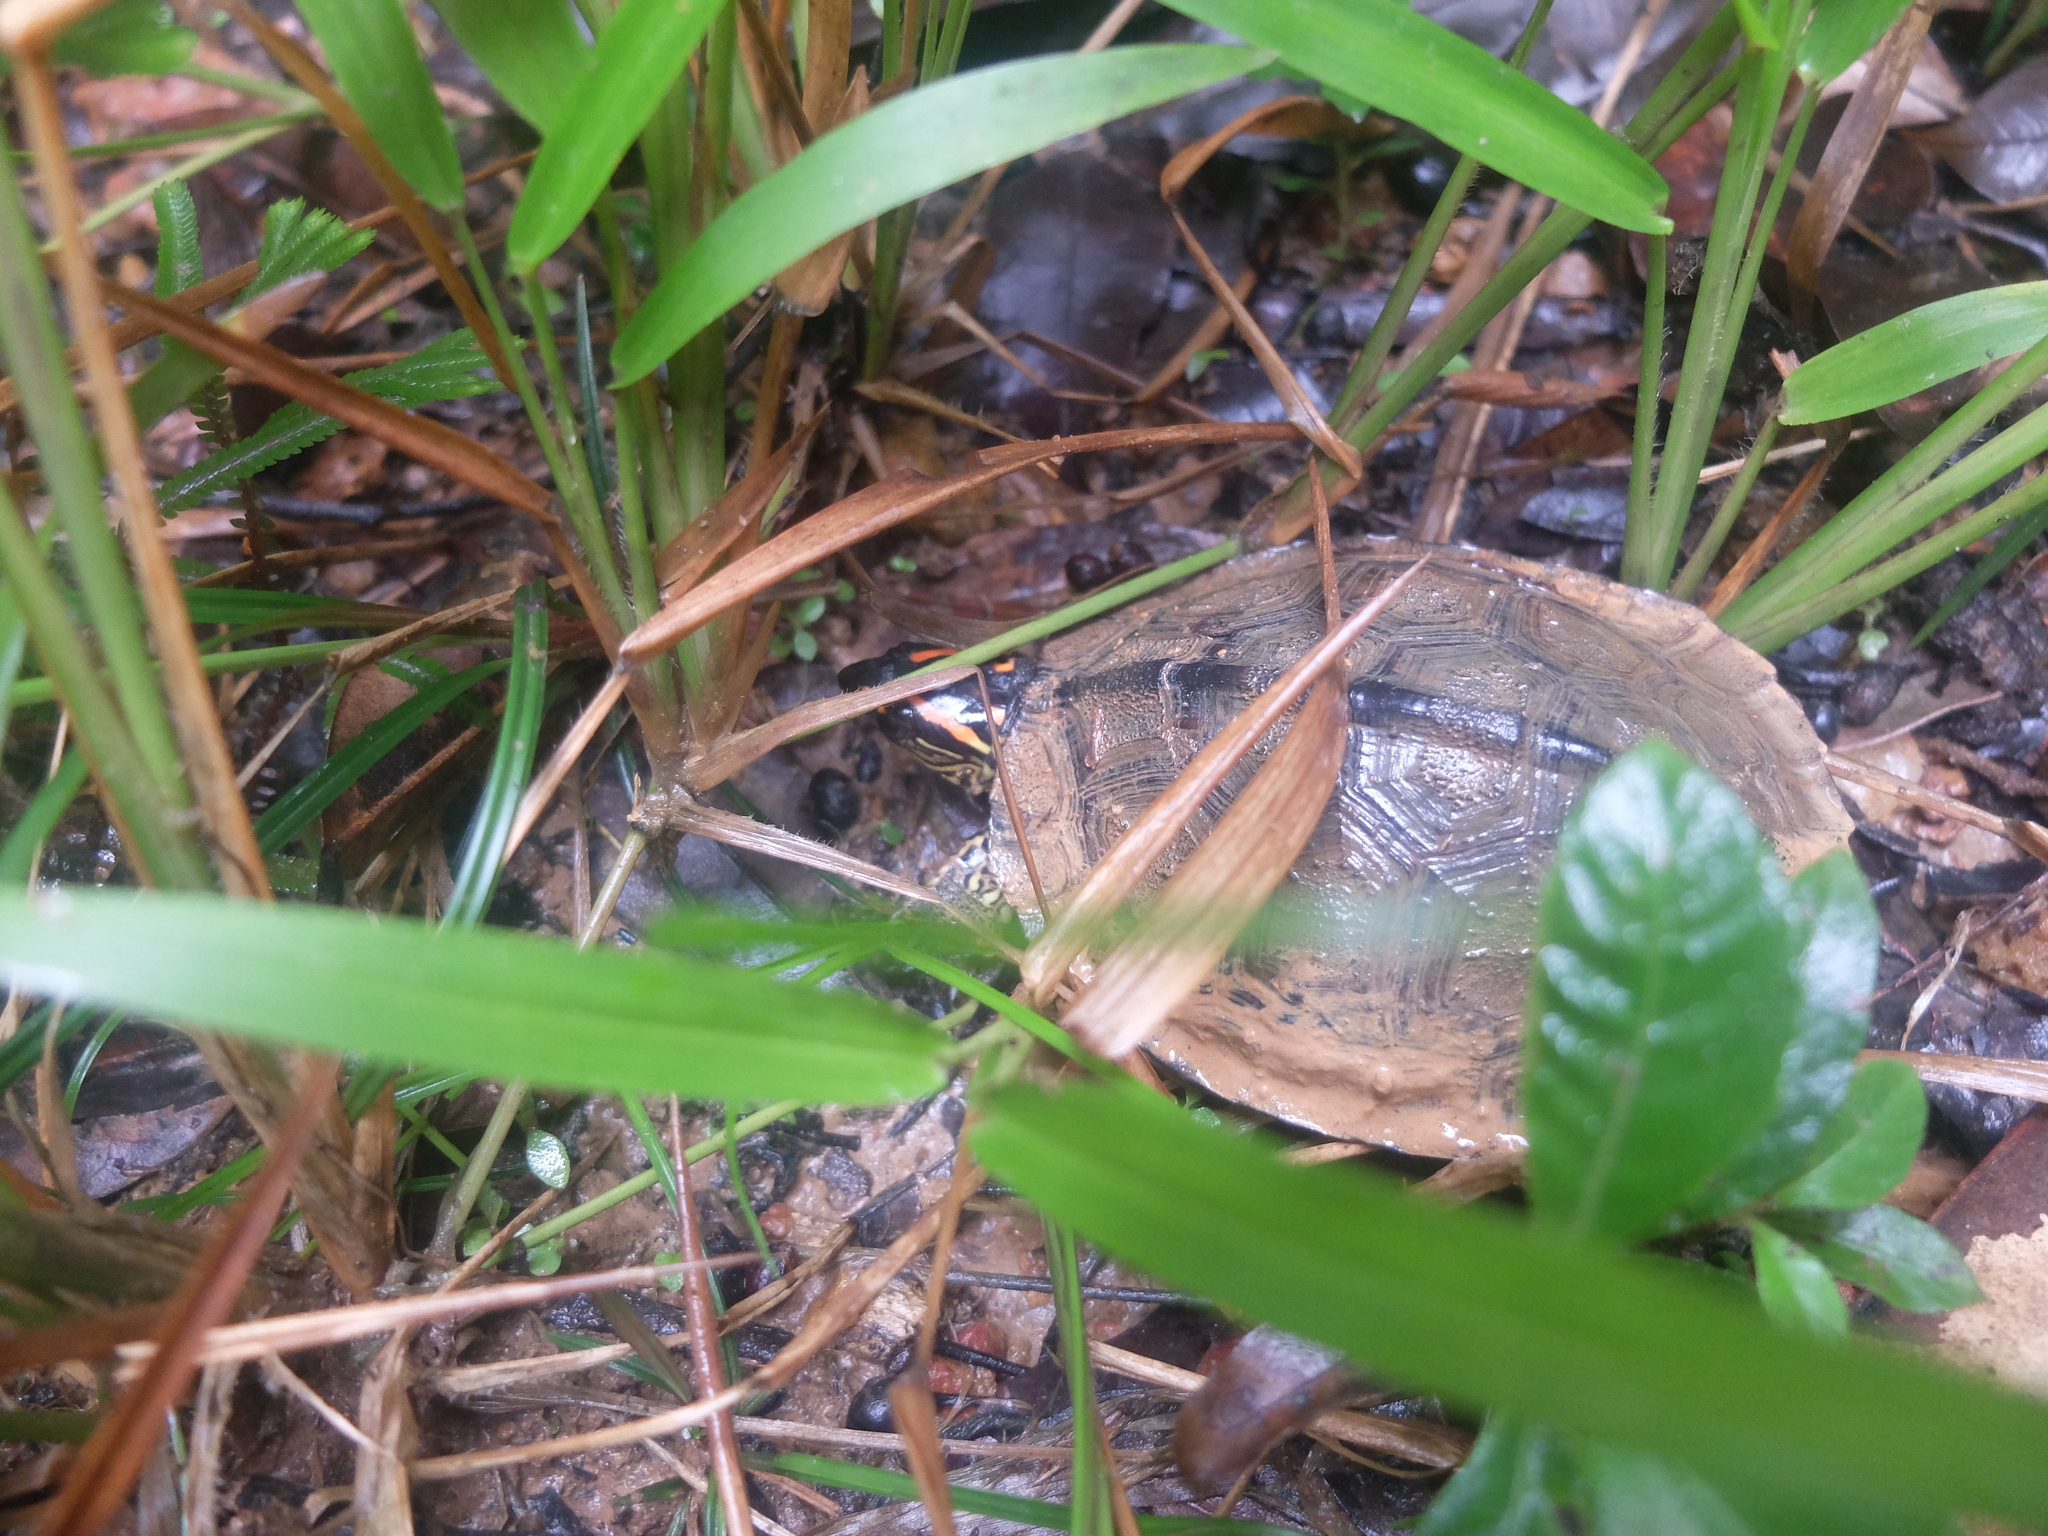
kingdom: Animalia
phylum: Chordata
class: Testudines
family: Geoemydidae
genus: Rhinoclemmys
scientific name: Rhinoclemmys punctularia
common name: Spot-legged turtle
